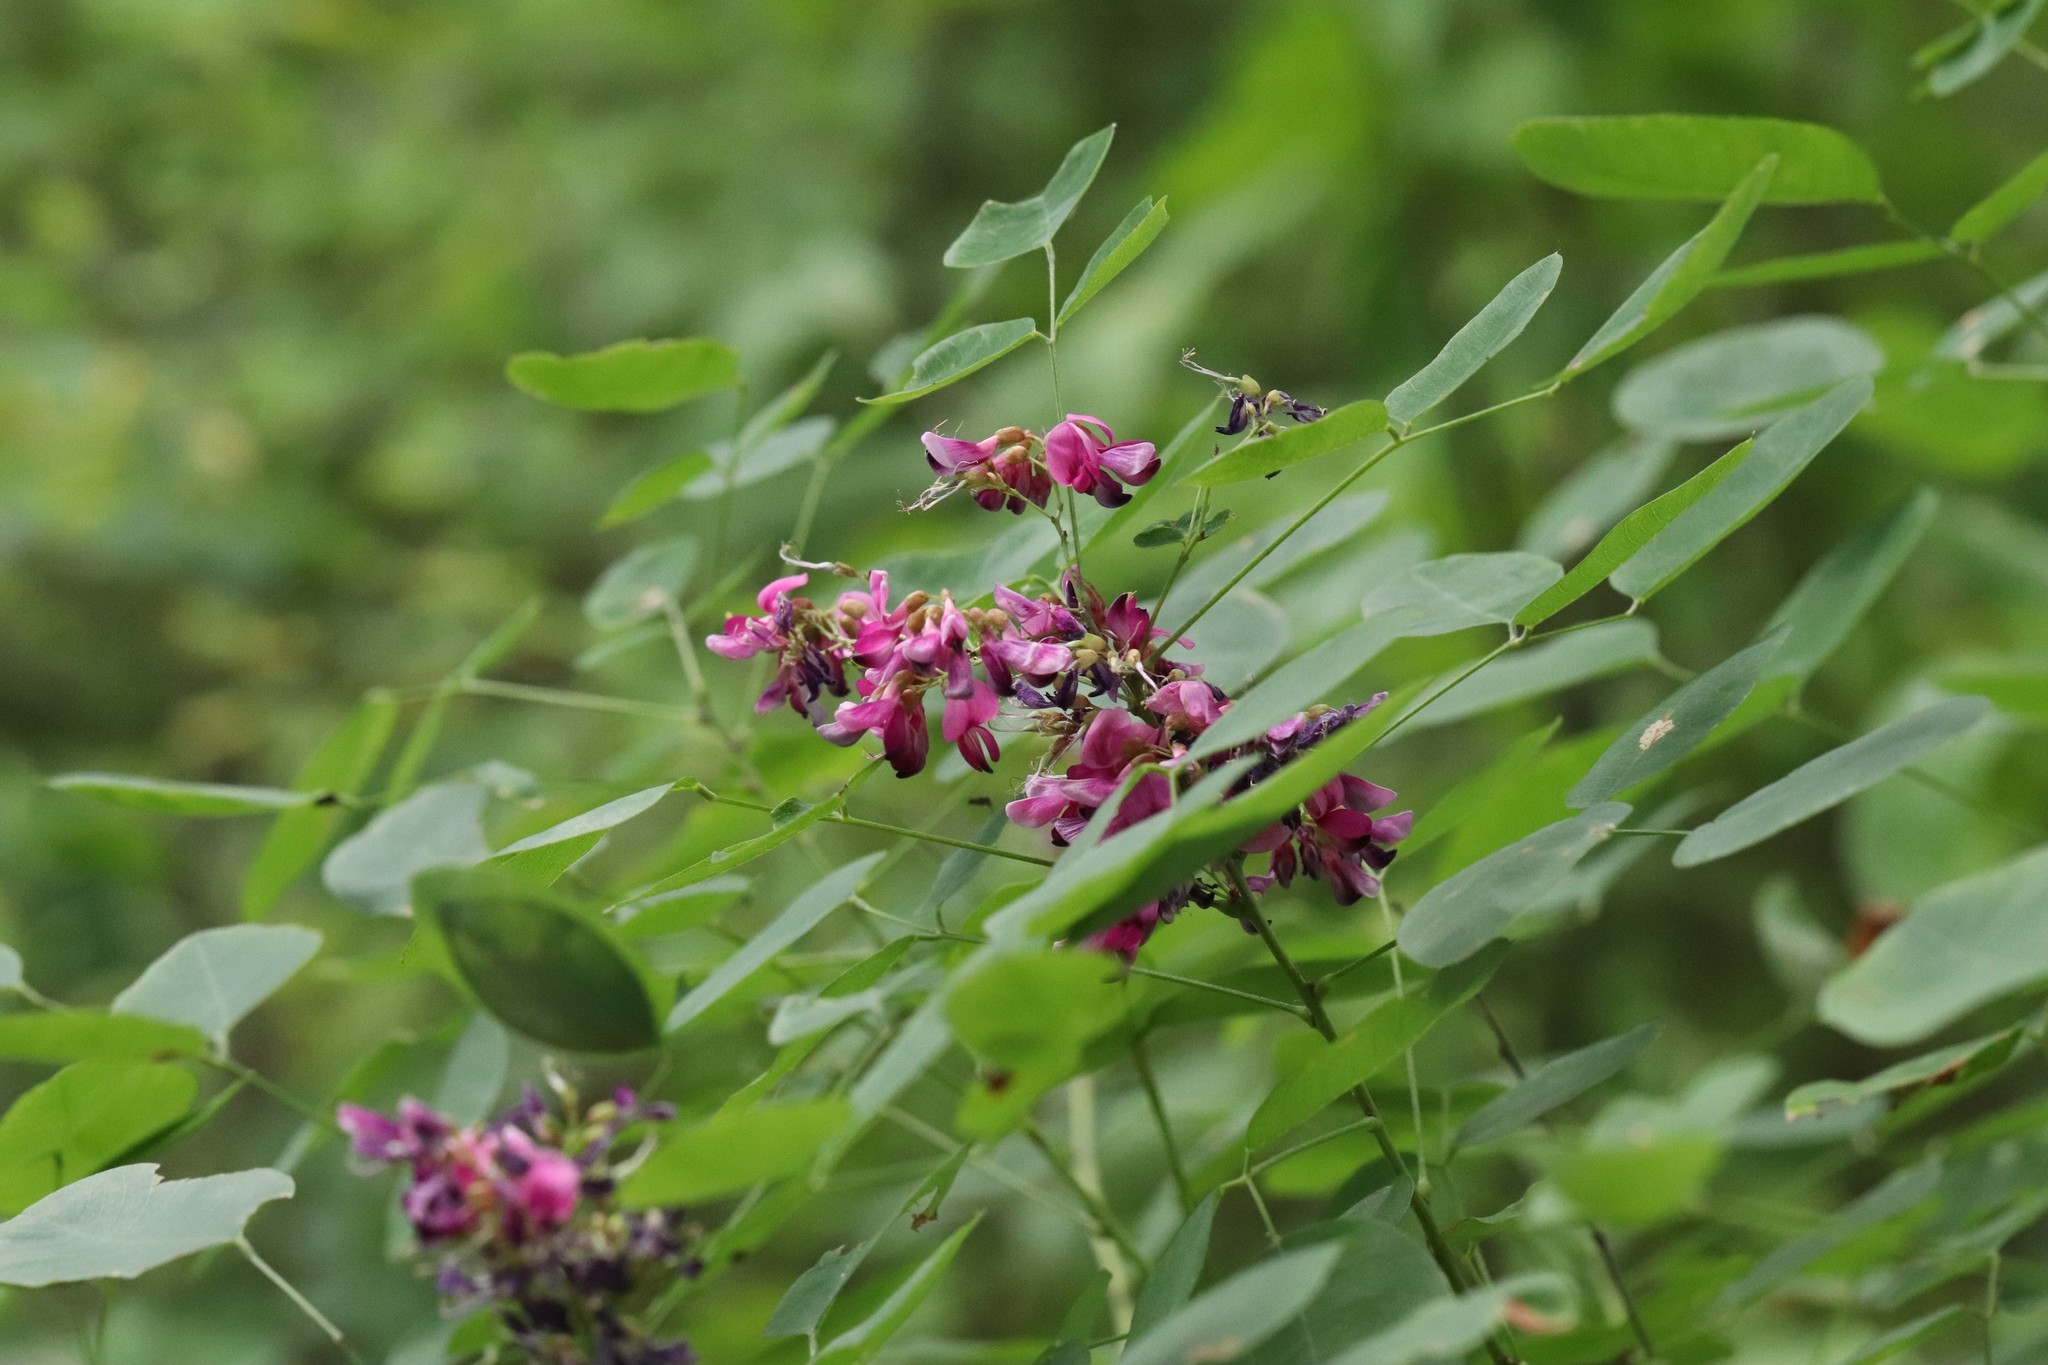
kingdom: Plantae
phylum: Tracheophyta
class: Magnoliopsida
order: Fabales
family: Fabaceae
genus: Lespedeza
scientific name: Lespedeza bicolor
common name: Shrub lespedeza
